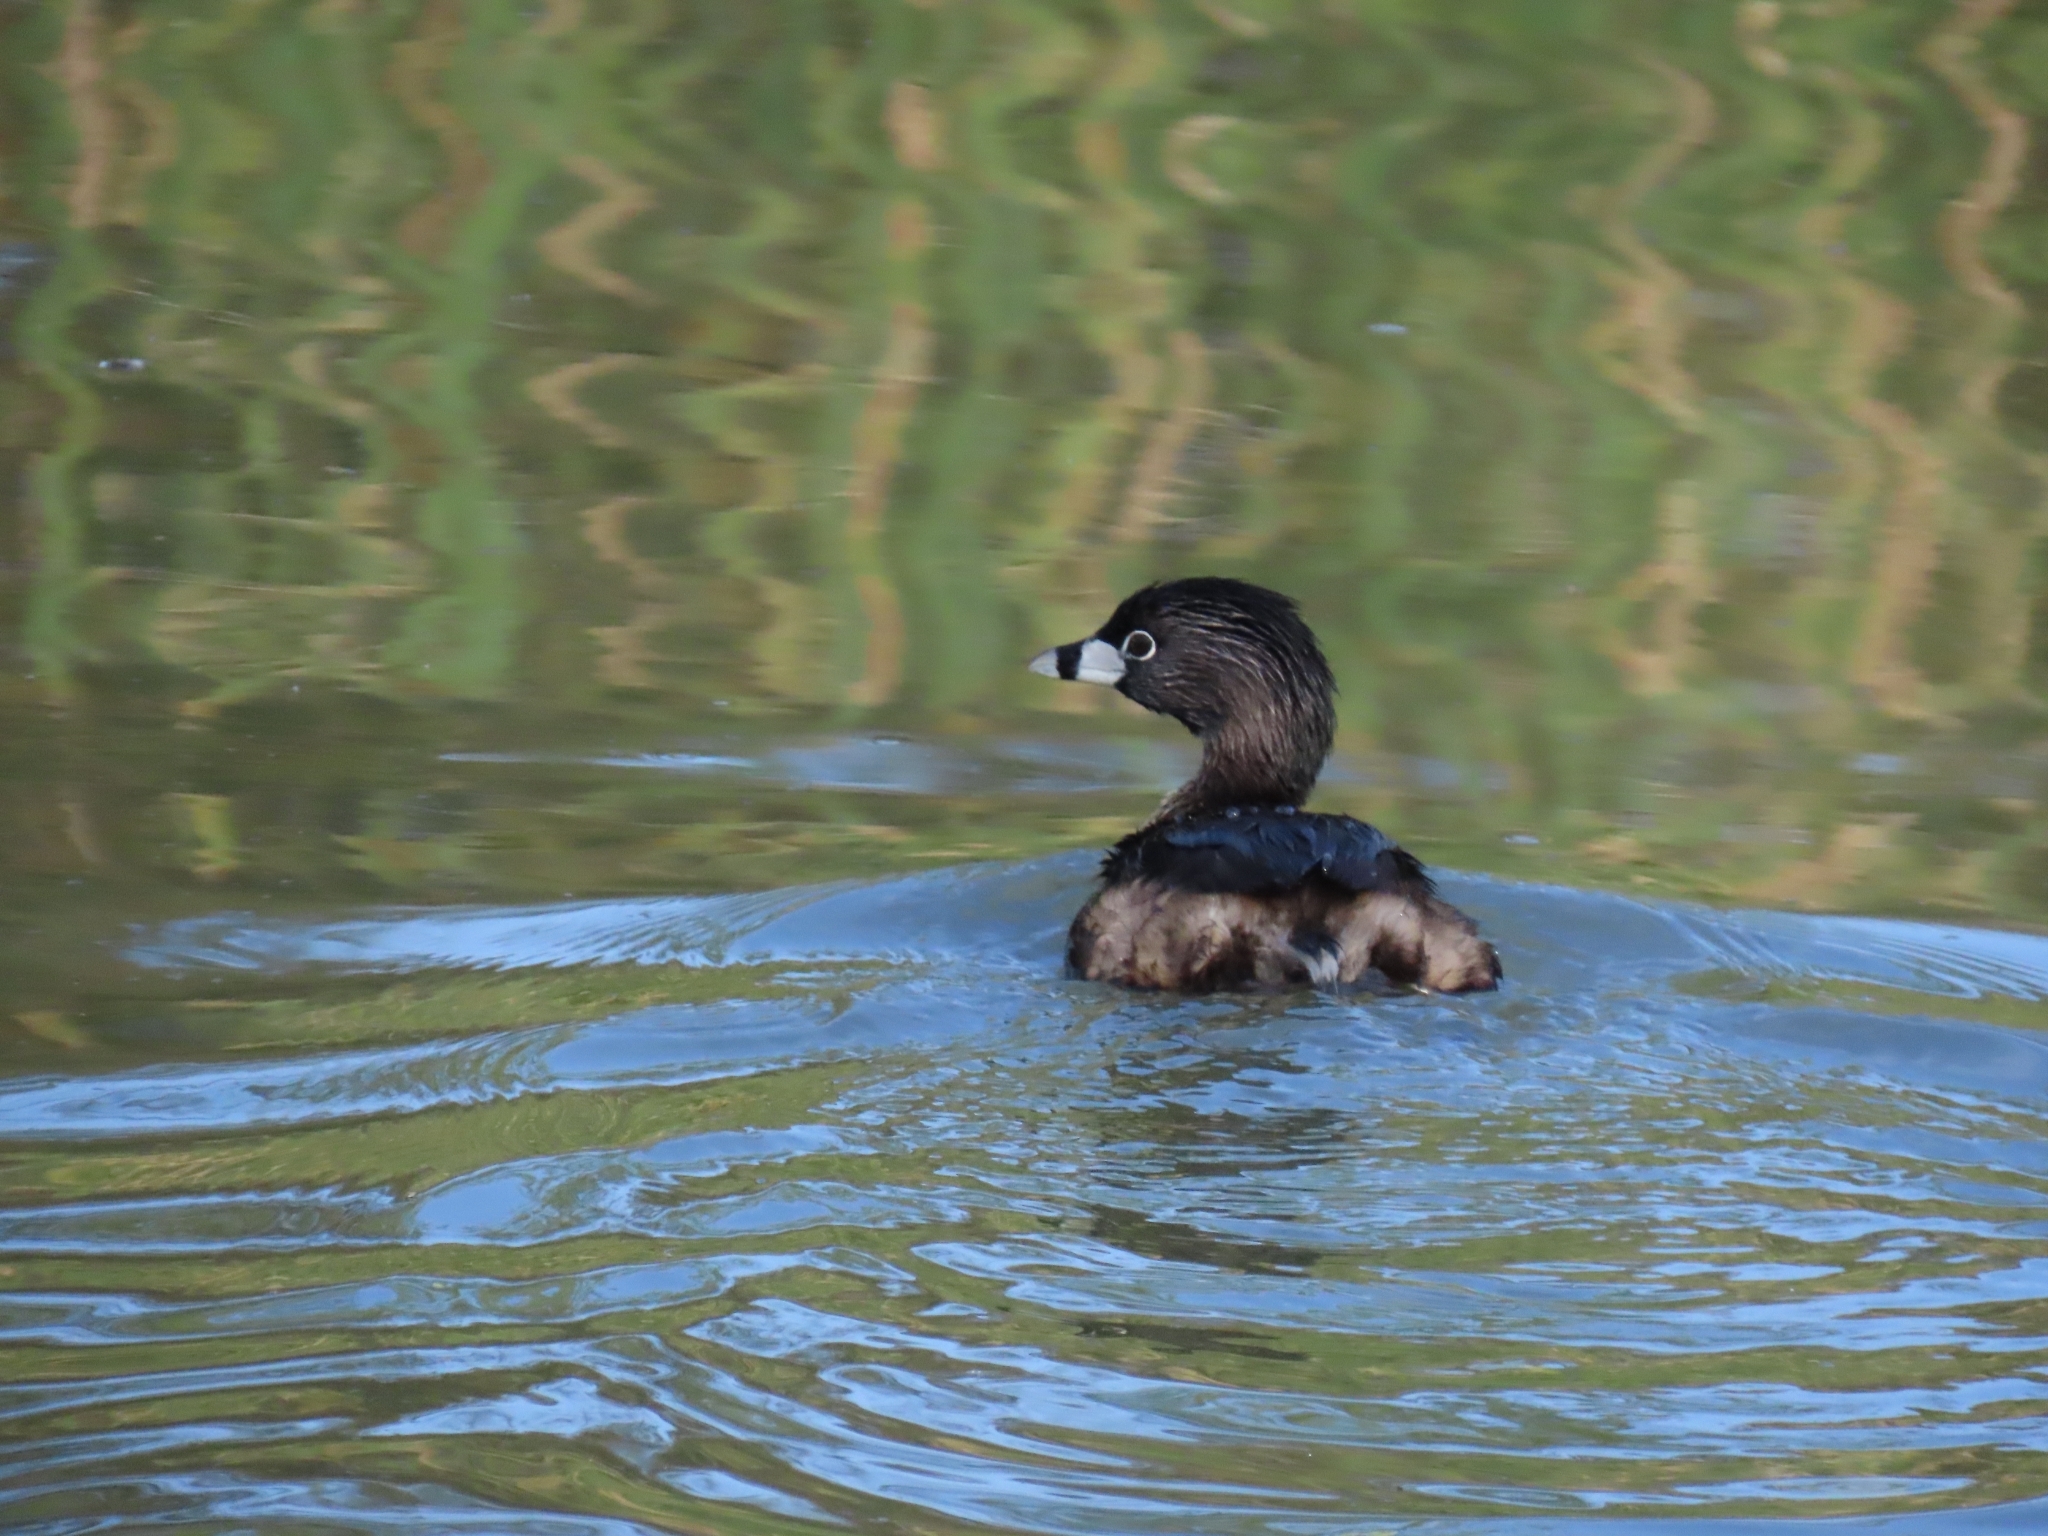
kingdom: Animalia
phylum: Chordata
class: Aves
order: Podicipediformes
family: Podicipedidae
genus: Podilymbus
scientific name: Podilymbus podiceps
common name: Pied-billed grebe
